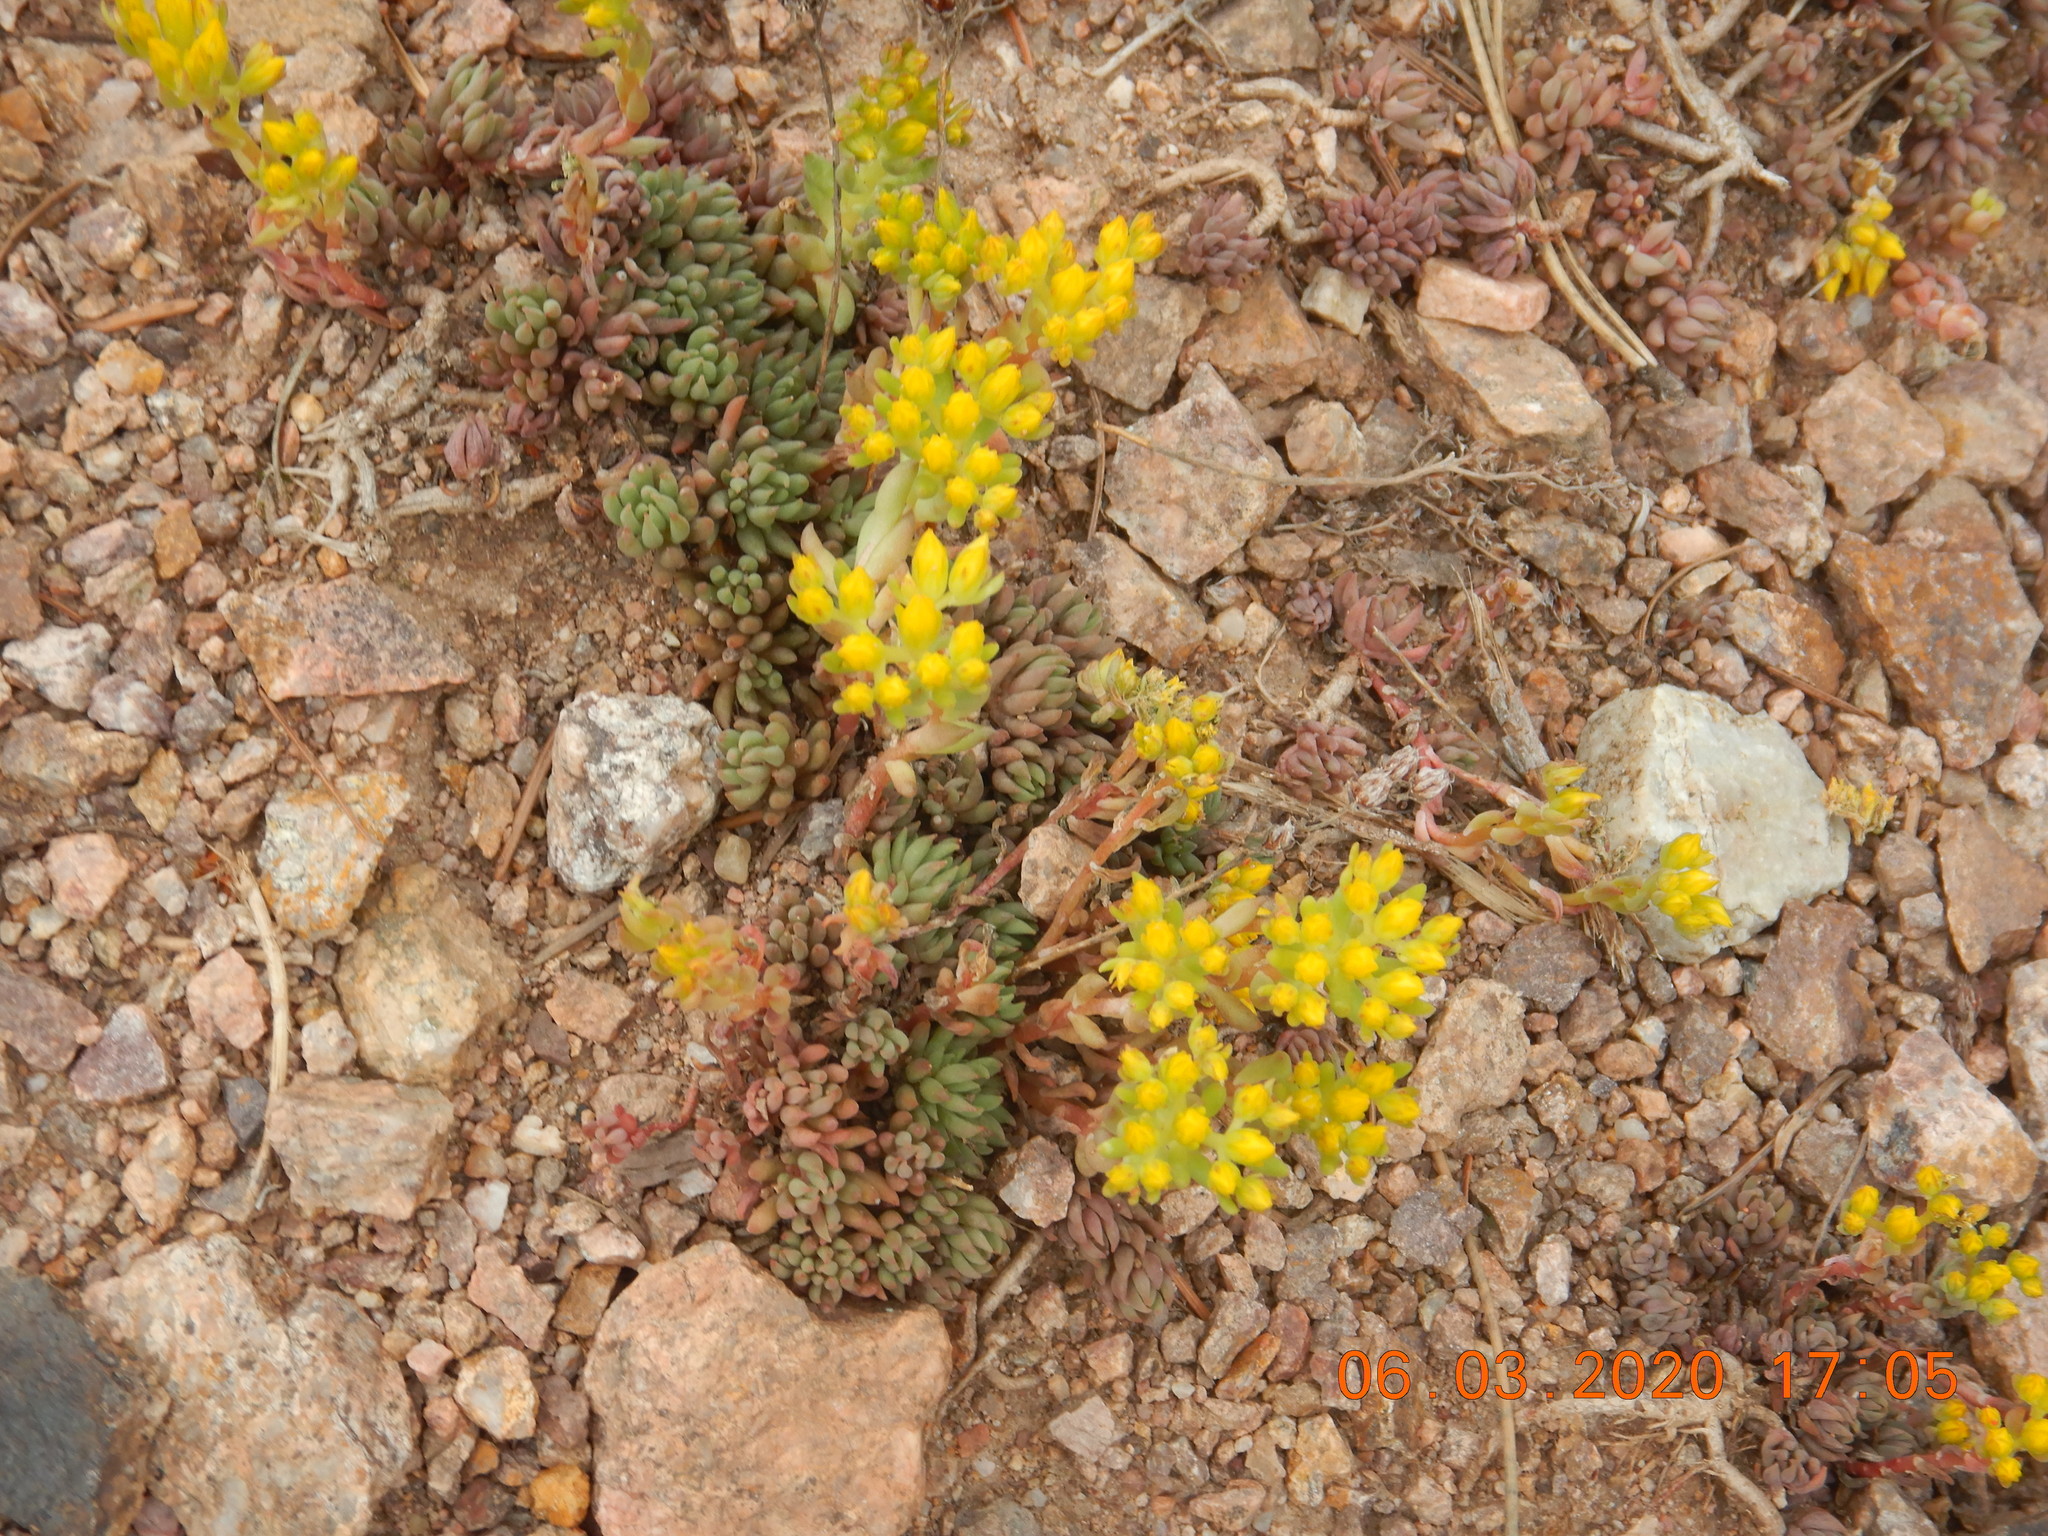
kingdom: Plantae
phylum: Tracheophyta
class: Magnoliopsida
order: Saxifragales
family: Crassulaceae
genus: Sedum
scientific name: Sedum lanceolatum
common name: Common stonecrop
